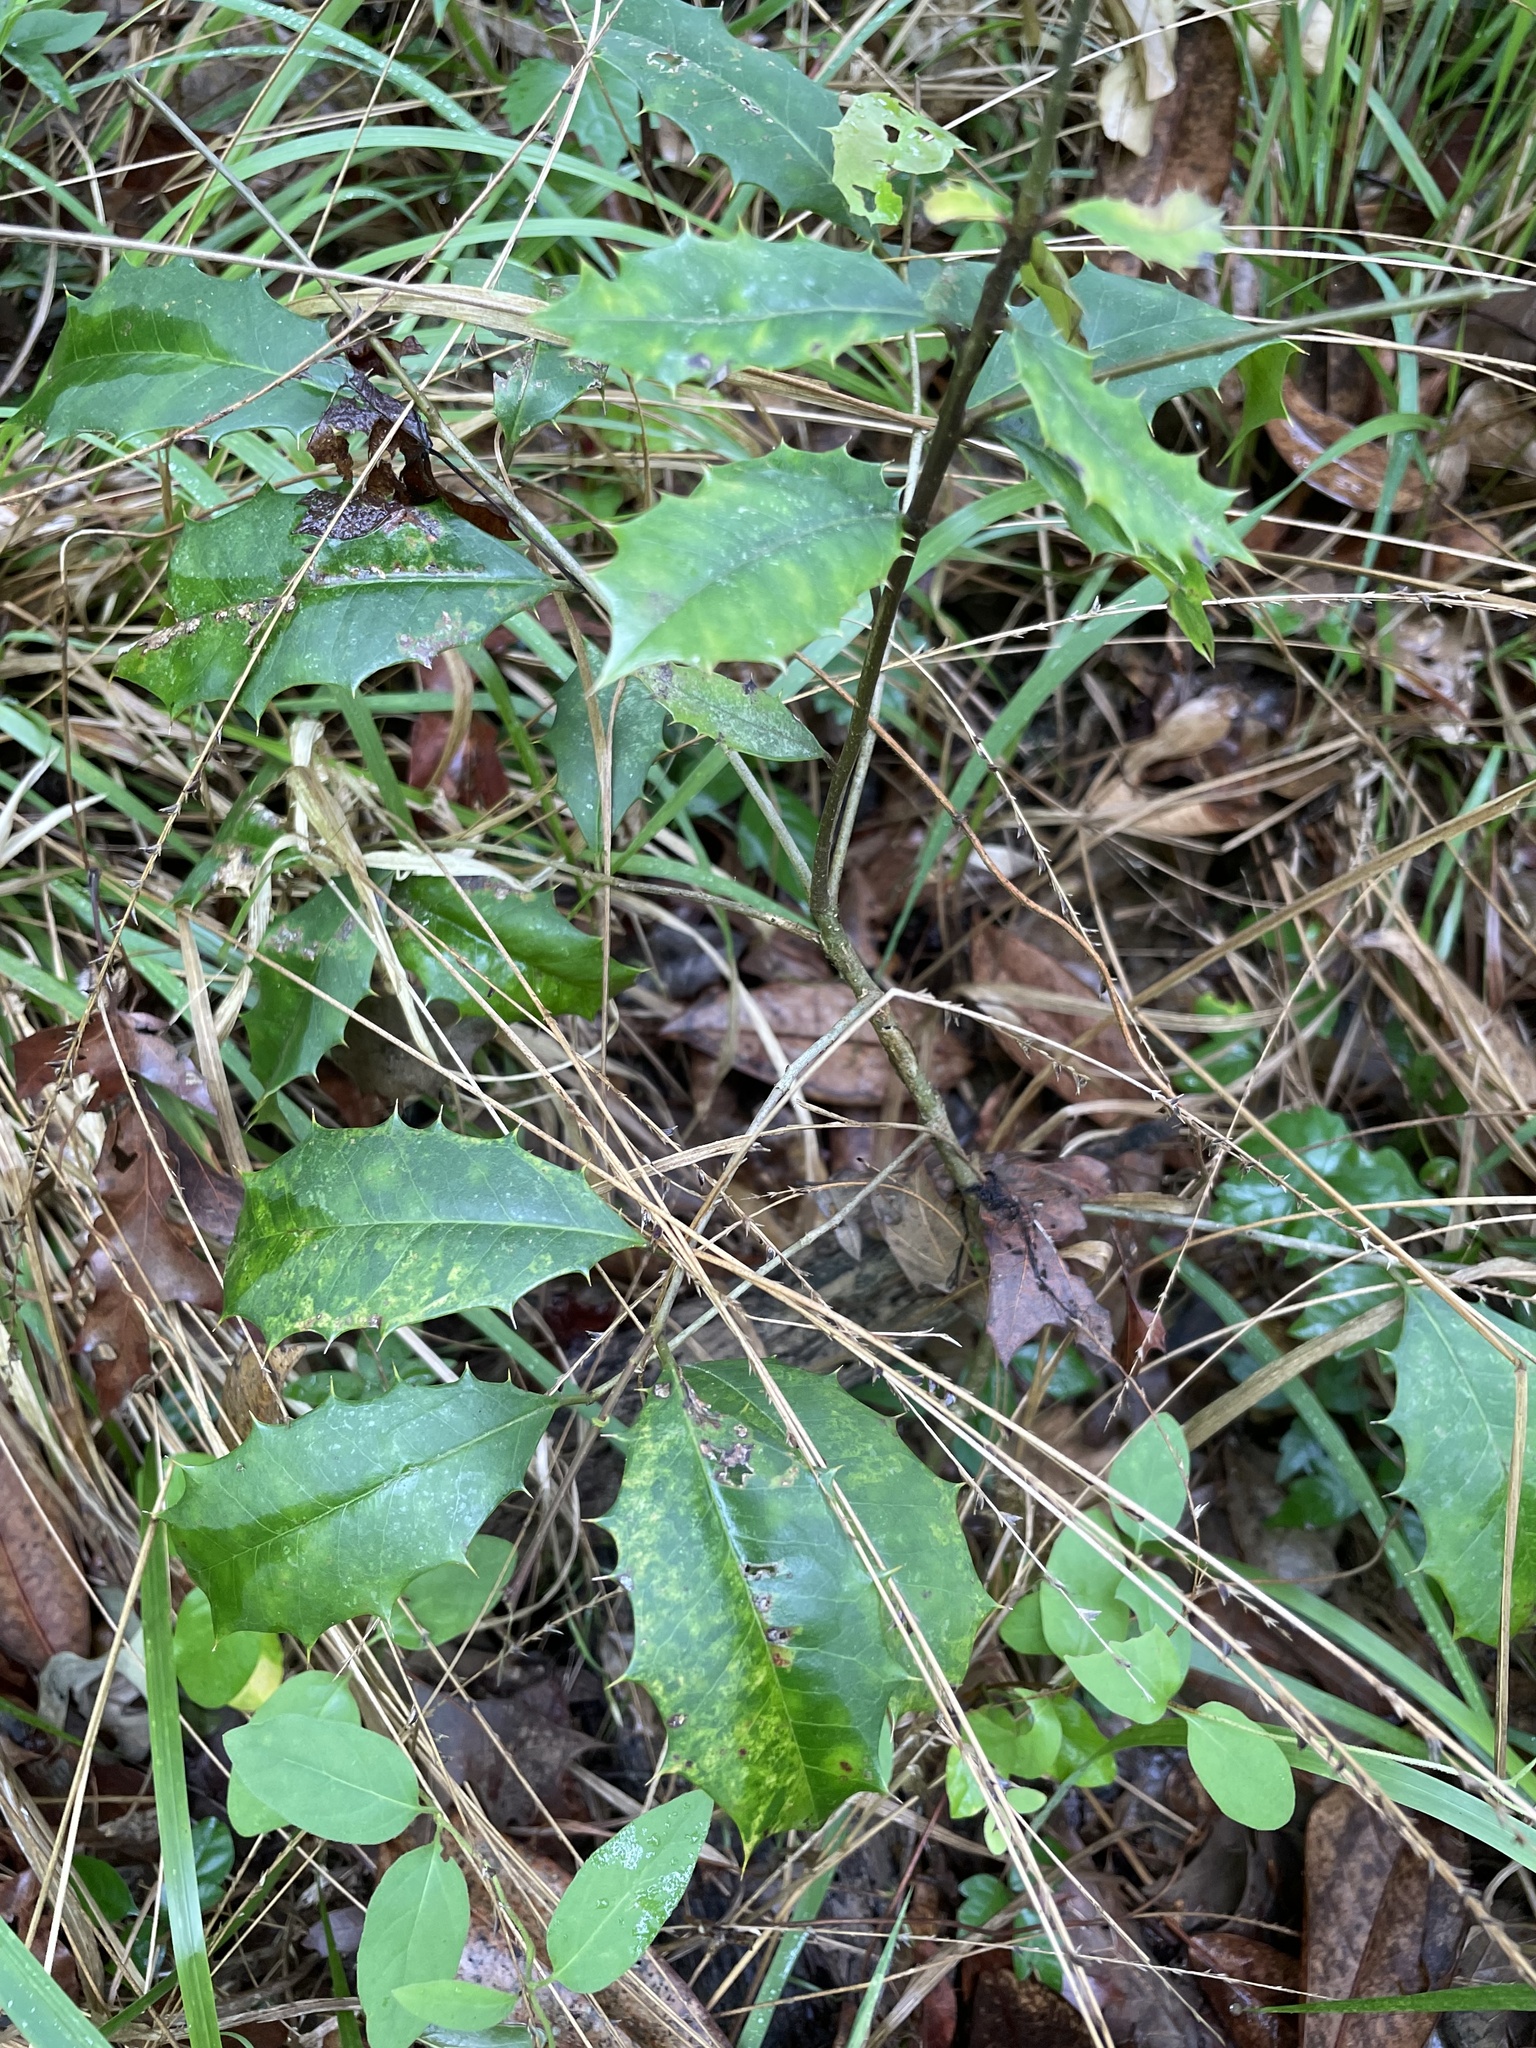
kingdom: Plantae
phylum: Tracheophyta
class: Magnoliopsida
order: Aquifoliales
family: Aquifoliaceae
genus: Ilex
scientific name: Ilex opaca
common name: American holly
